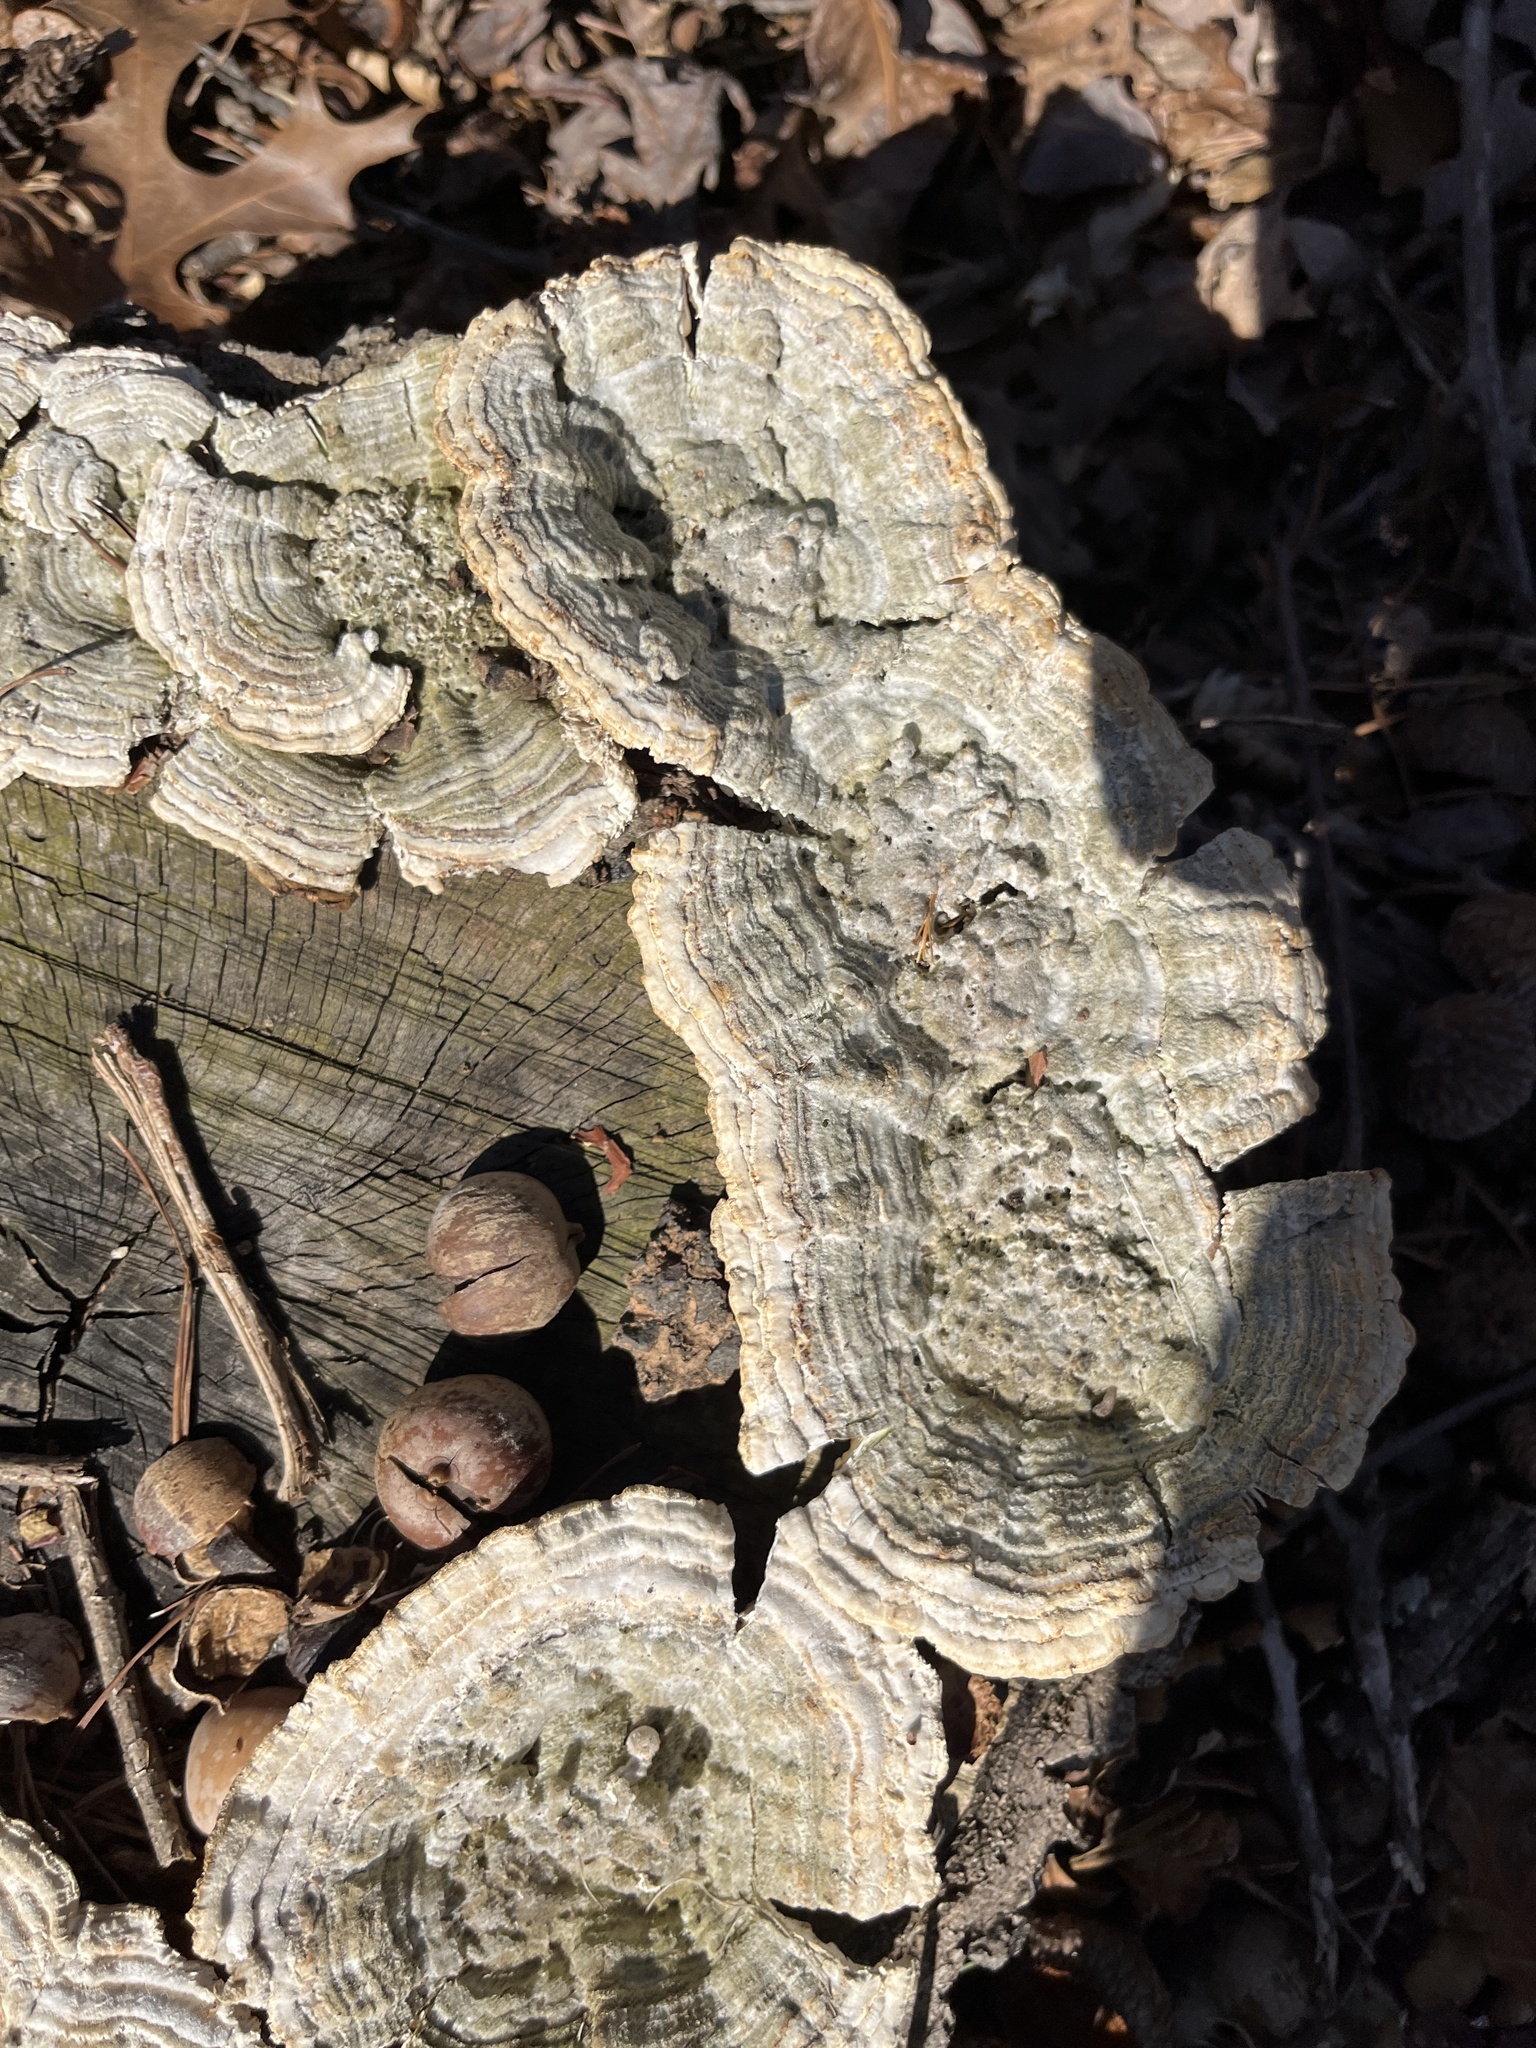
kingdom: Fungi
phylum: Basidiomycota
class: Agaricomycetes
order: Polyporales
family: Polyporaceae
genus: Lenzites
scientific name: Lenzites betulinus
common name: Birch mazegill
